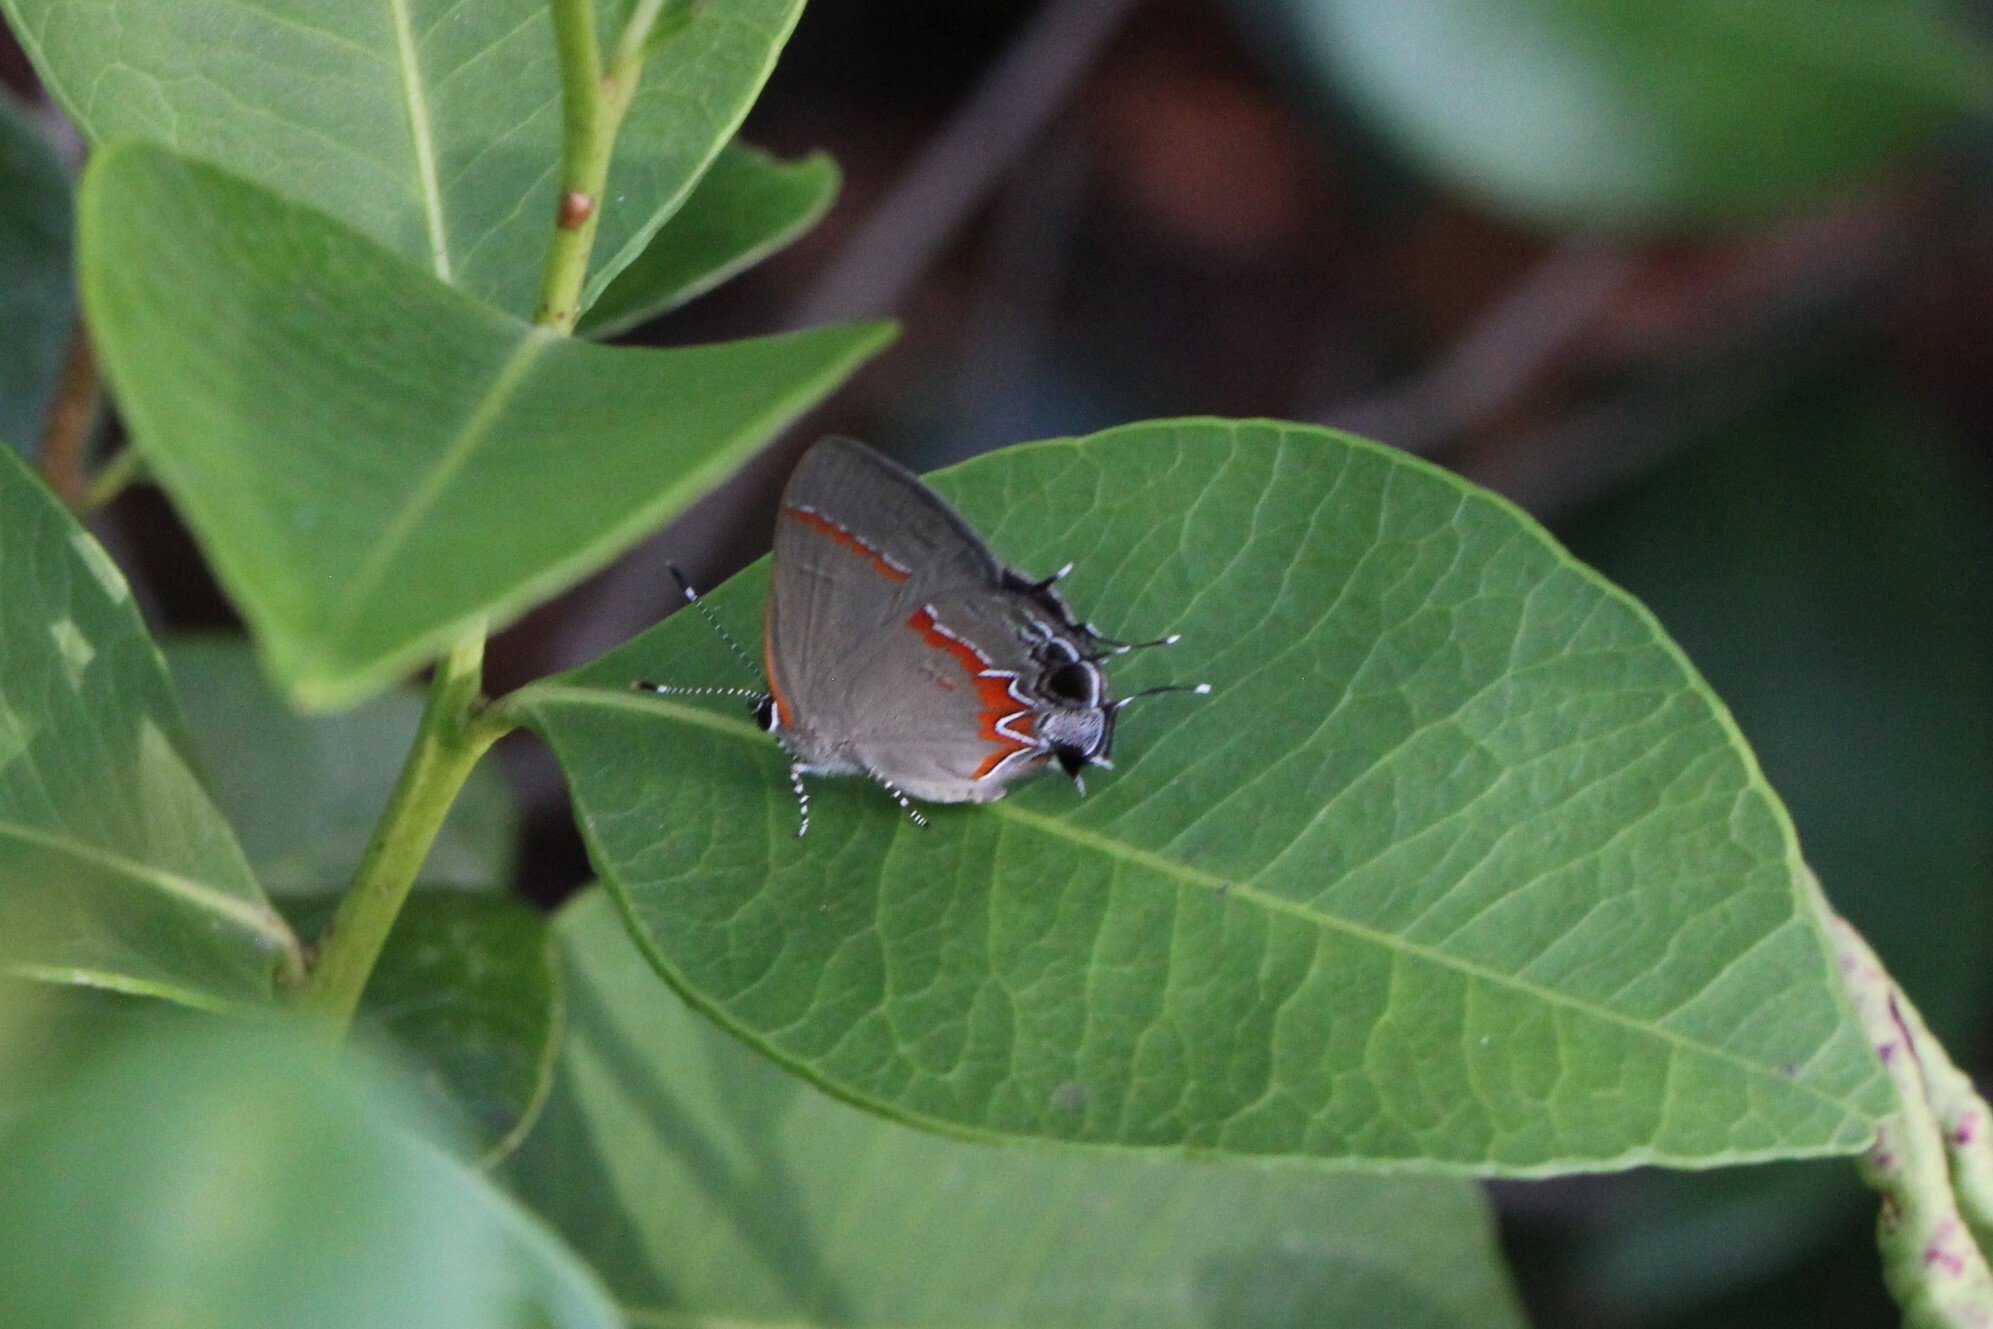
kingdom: Animalia
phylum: Arthropoda
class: Insecta
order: Lepidoptera
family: Lycaenidae
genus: Calycopis
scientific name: Calycopis cecrops
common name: Red-banded hairstreak
